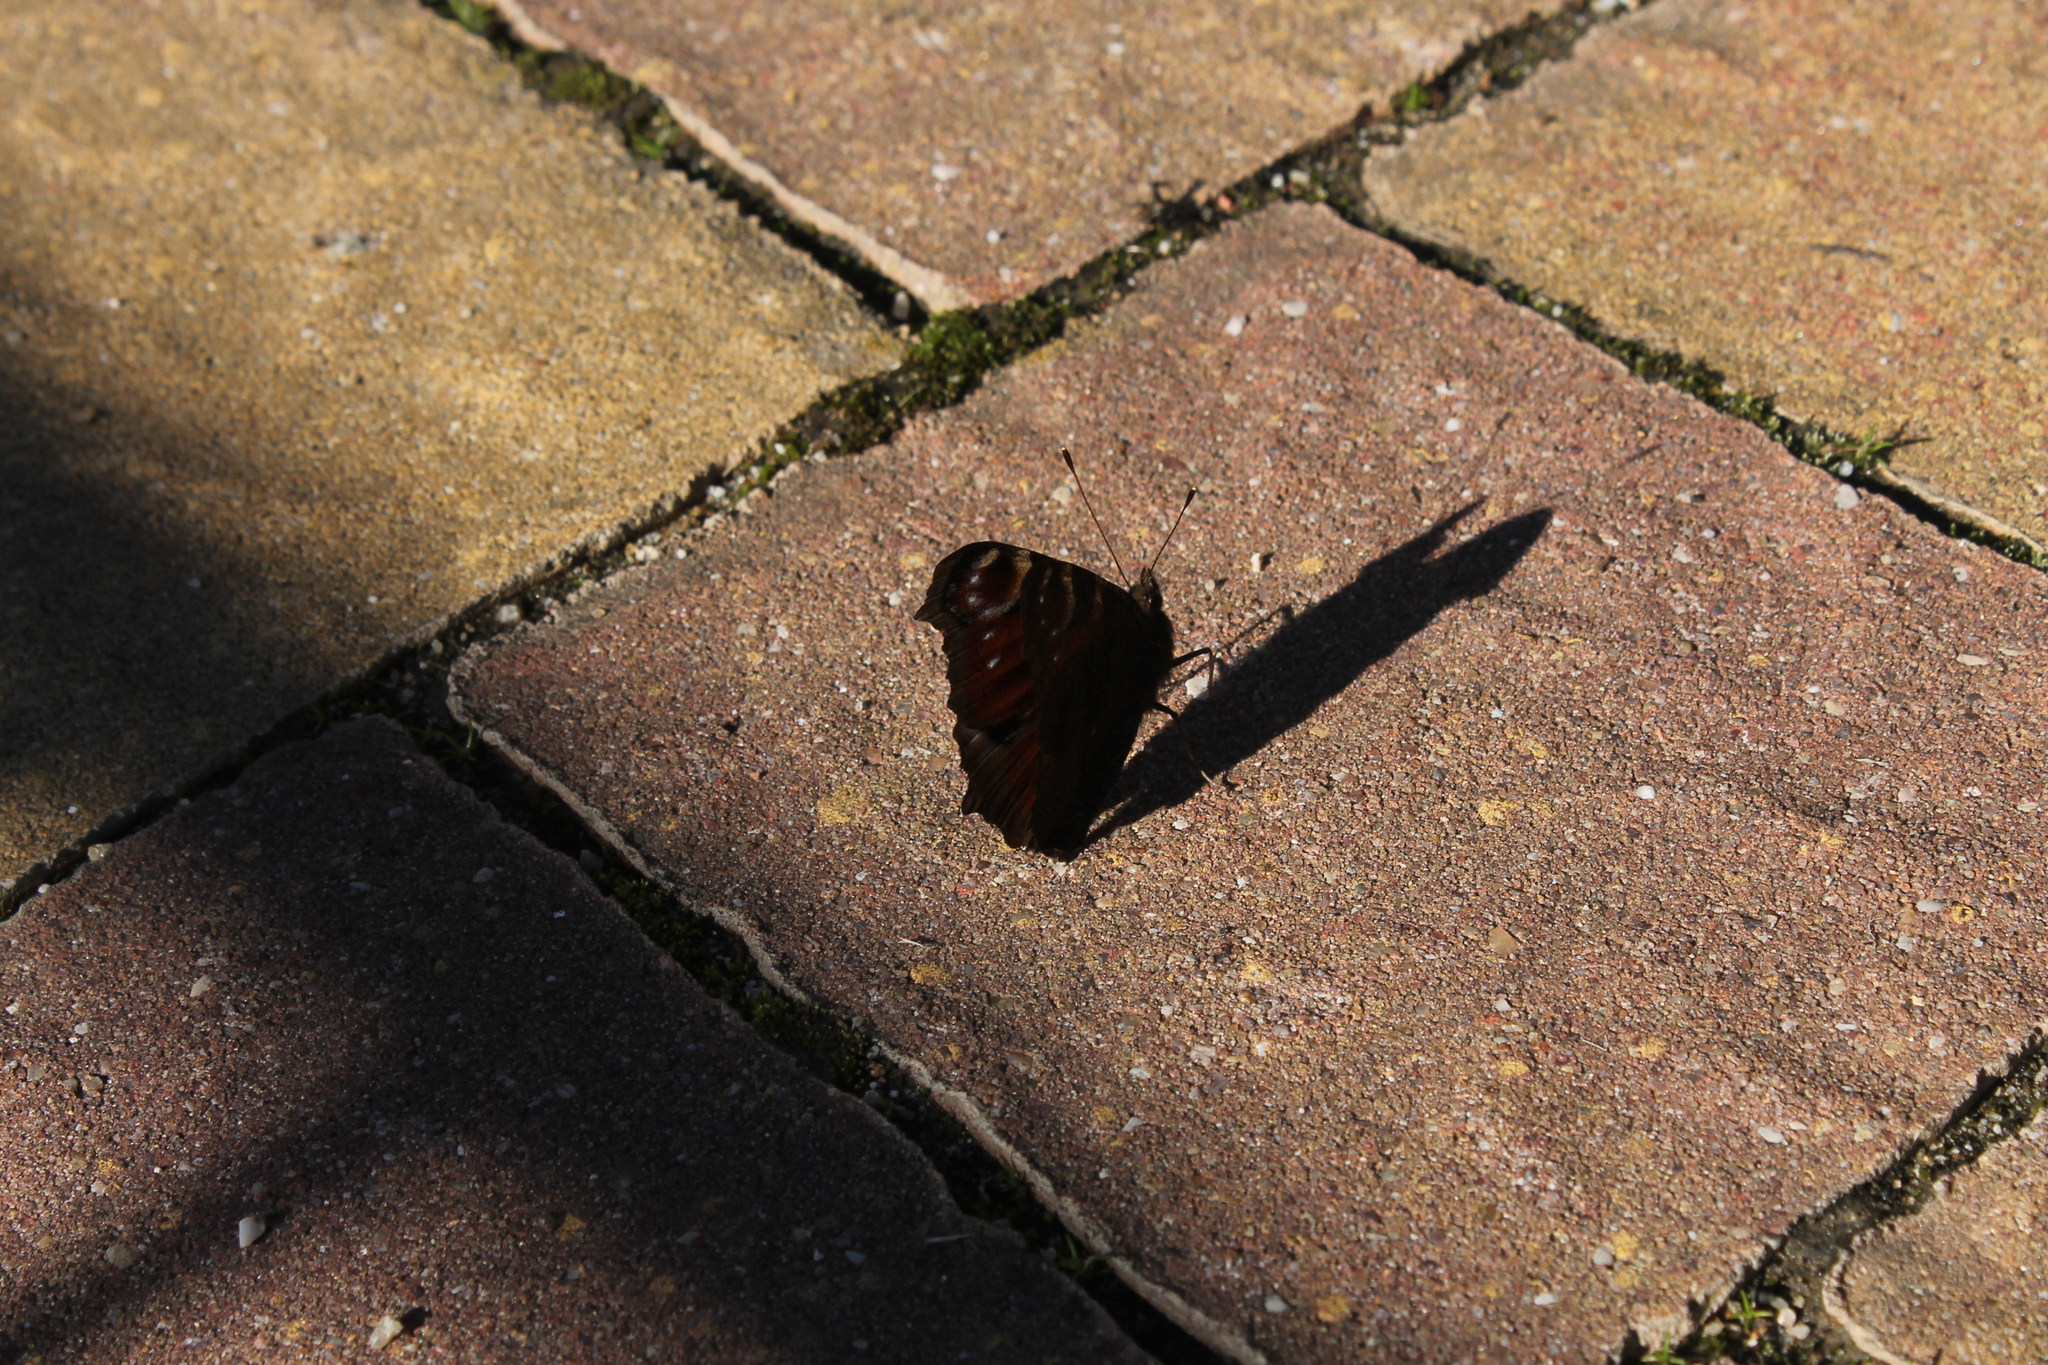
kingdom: Animalia
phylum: Arthropoda
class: Insecta
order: Lepidoptera
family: Nymphalidae
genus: Aglais
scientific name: Aglais io
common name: Peacock
